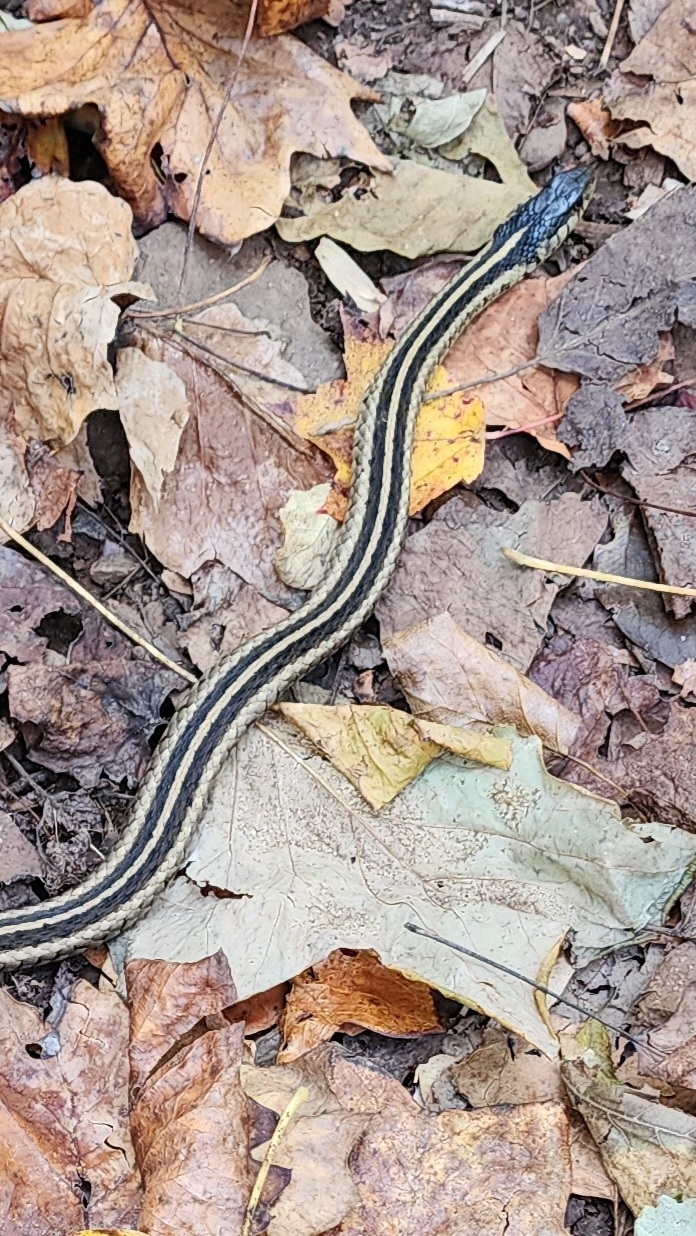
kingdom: Animalia
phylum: Chordata
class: Squamata
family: Colubridae
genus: Thamnophis
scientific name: Thamnophis sirtalis
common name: Common garter snake
